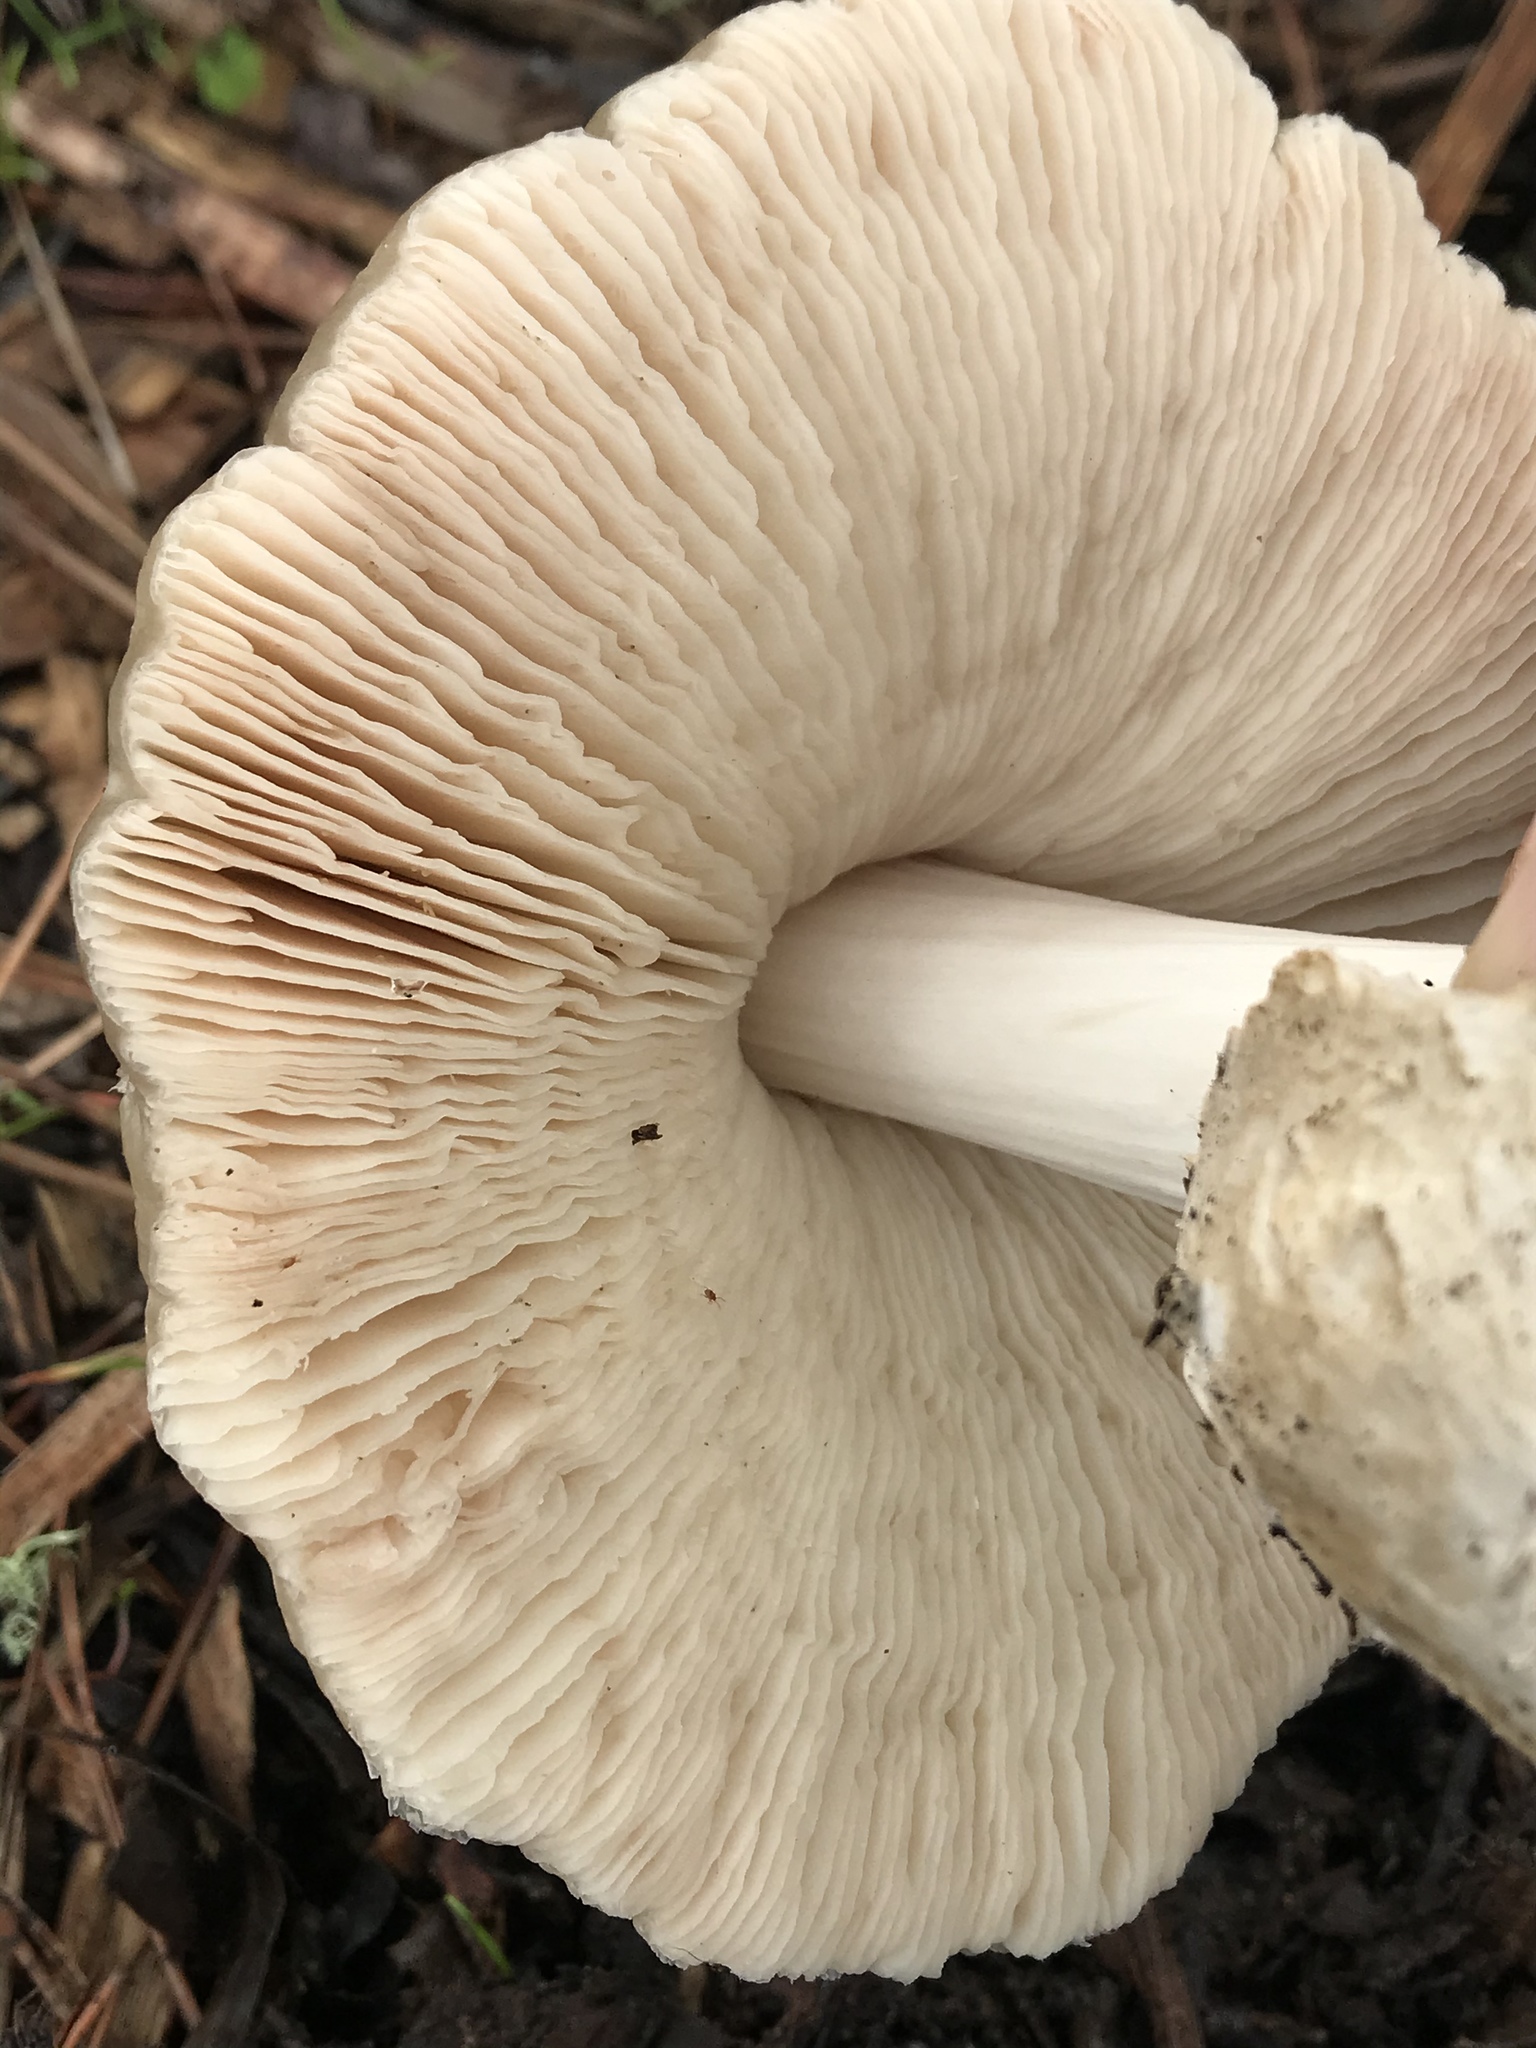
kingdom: Fungi
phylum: Basidiomycota
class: Agaricomycetes
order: Agaricales
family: Pluteaceae
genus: Volvopluteus
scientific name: Volvopluteus gloiocephalus
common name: Stubble rosegill
